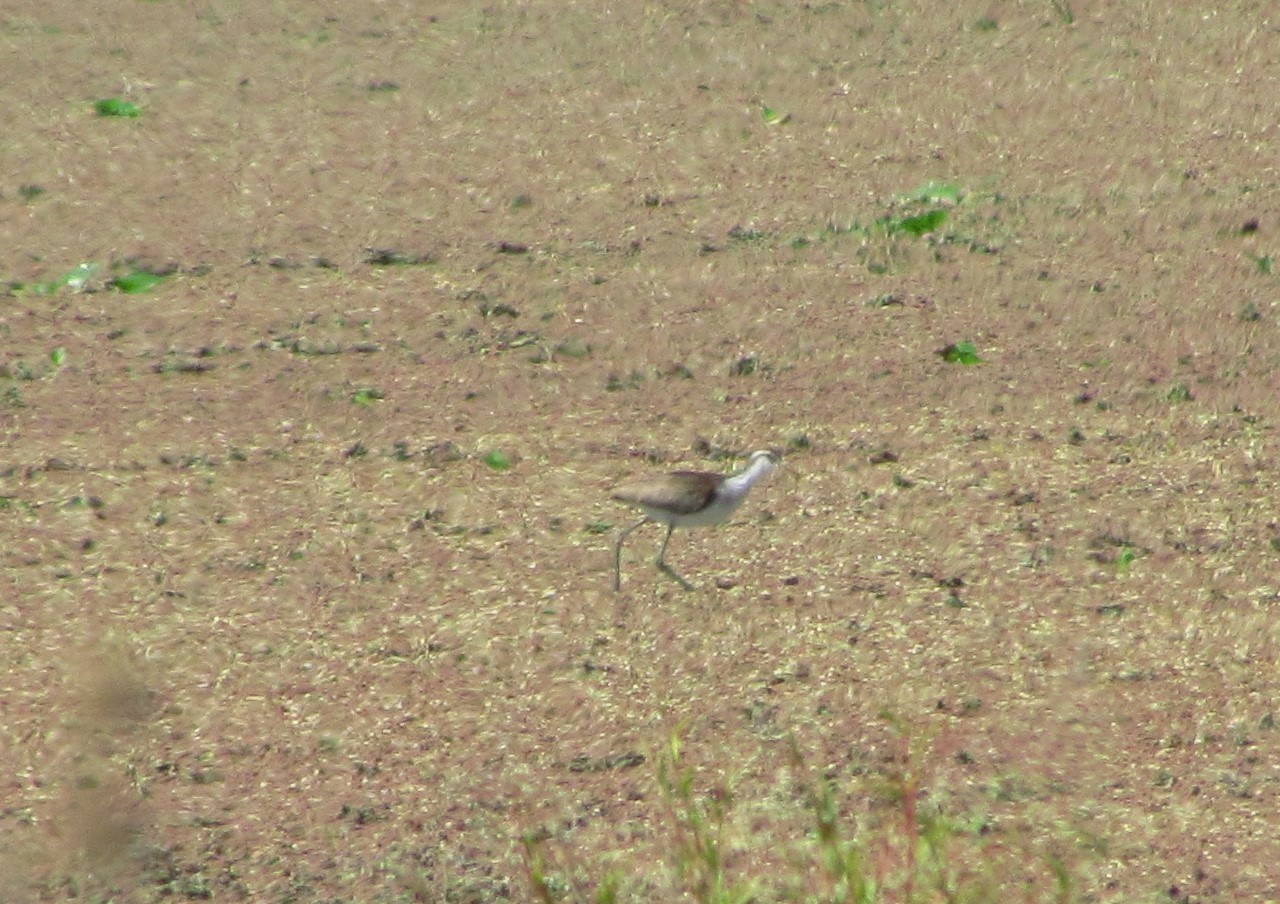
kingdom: Animalia
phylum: Chordata
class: Aves
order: Charadriiformes
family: Jacanidae
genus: Jacana
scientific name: Jacana jacana
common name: Wattled jacana
